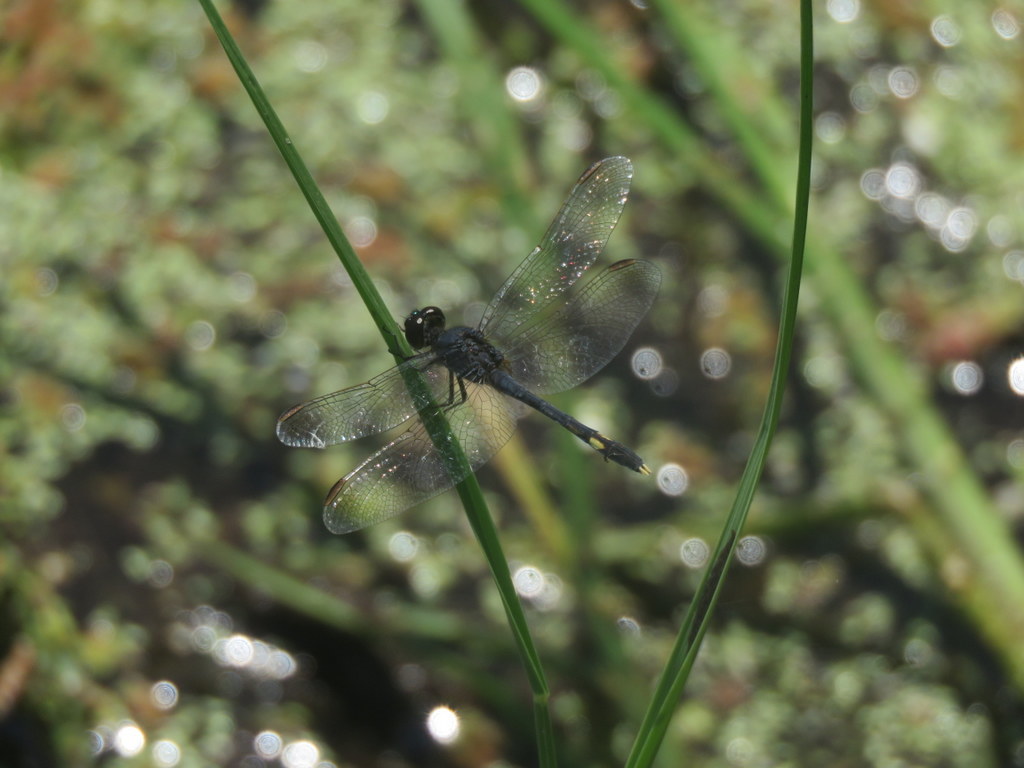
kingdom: Animalia
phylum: Arthropoda
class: Insecta
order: Odonata
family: Libellulidae
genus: Erythrodiplax
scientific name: Erythrodiplax nigricans
